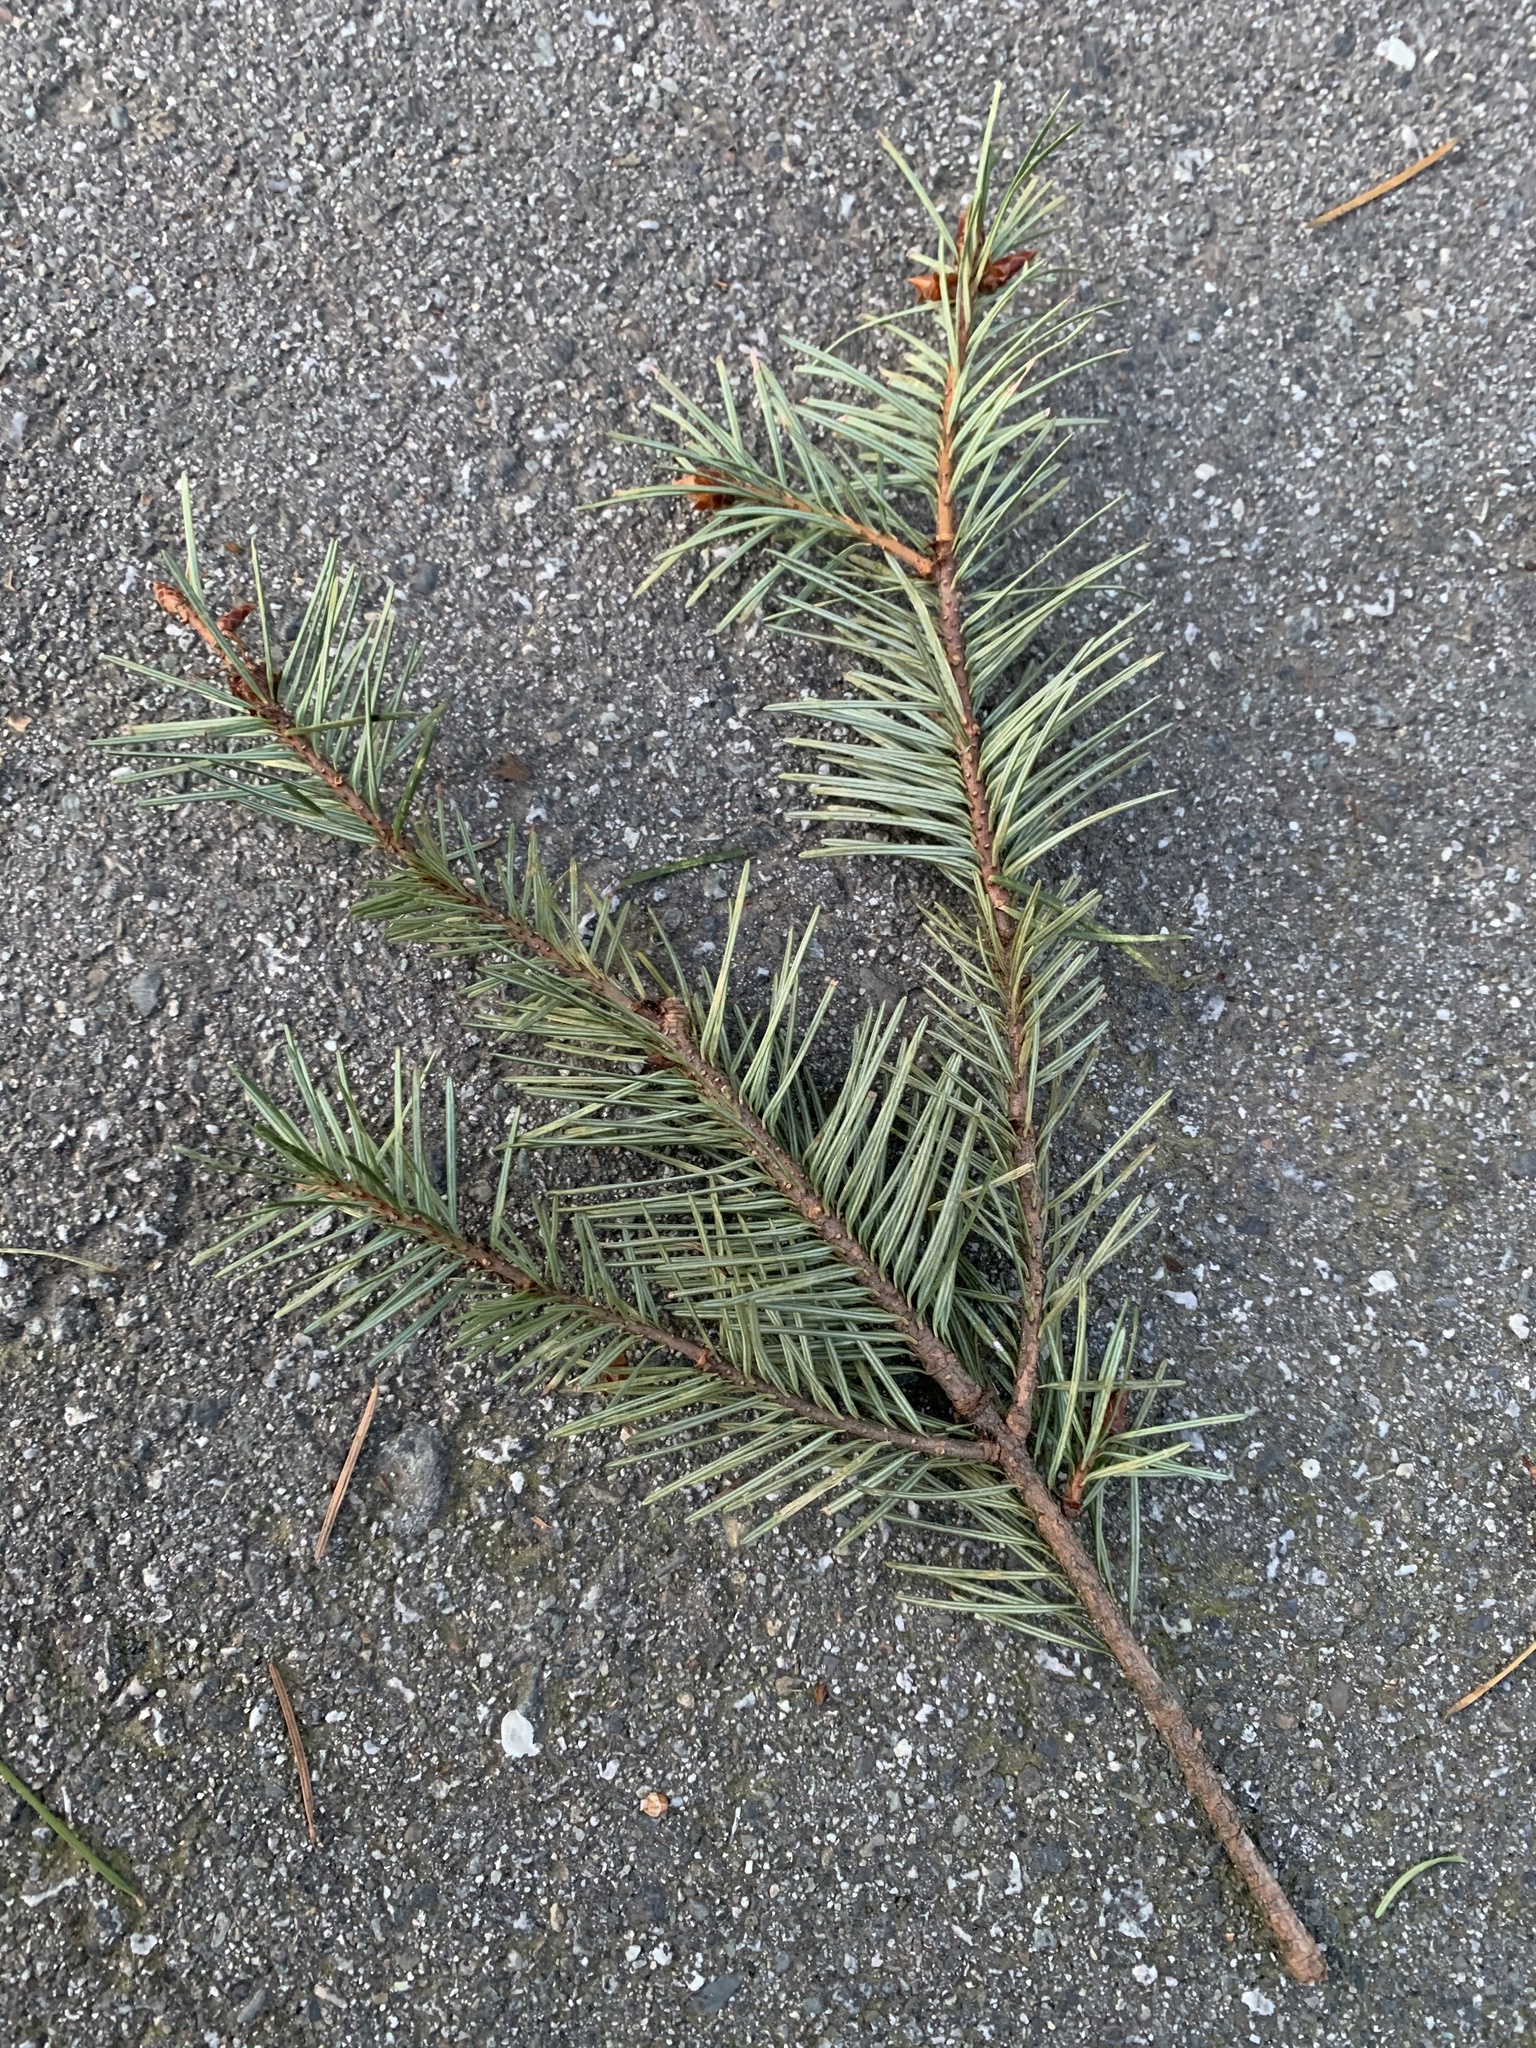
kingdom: Plantae
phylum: Tracheophyta
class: Pinopsida
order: Pinales
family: Pinaceae
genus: Pseudotsuga
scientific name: Pseudotsuga menziesii
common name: Douglas fir
